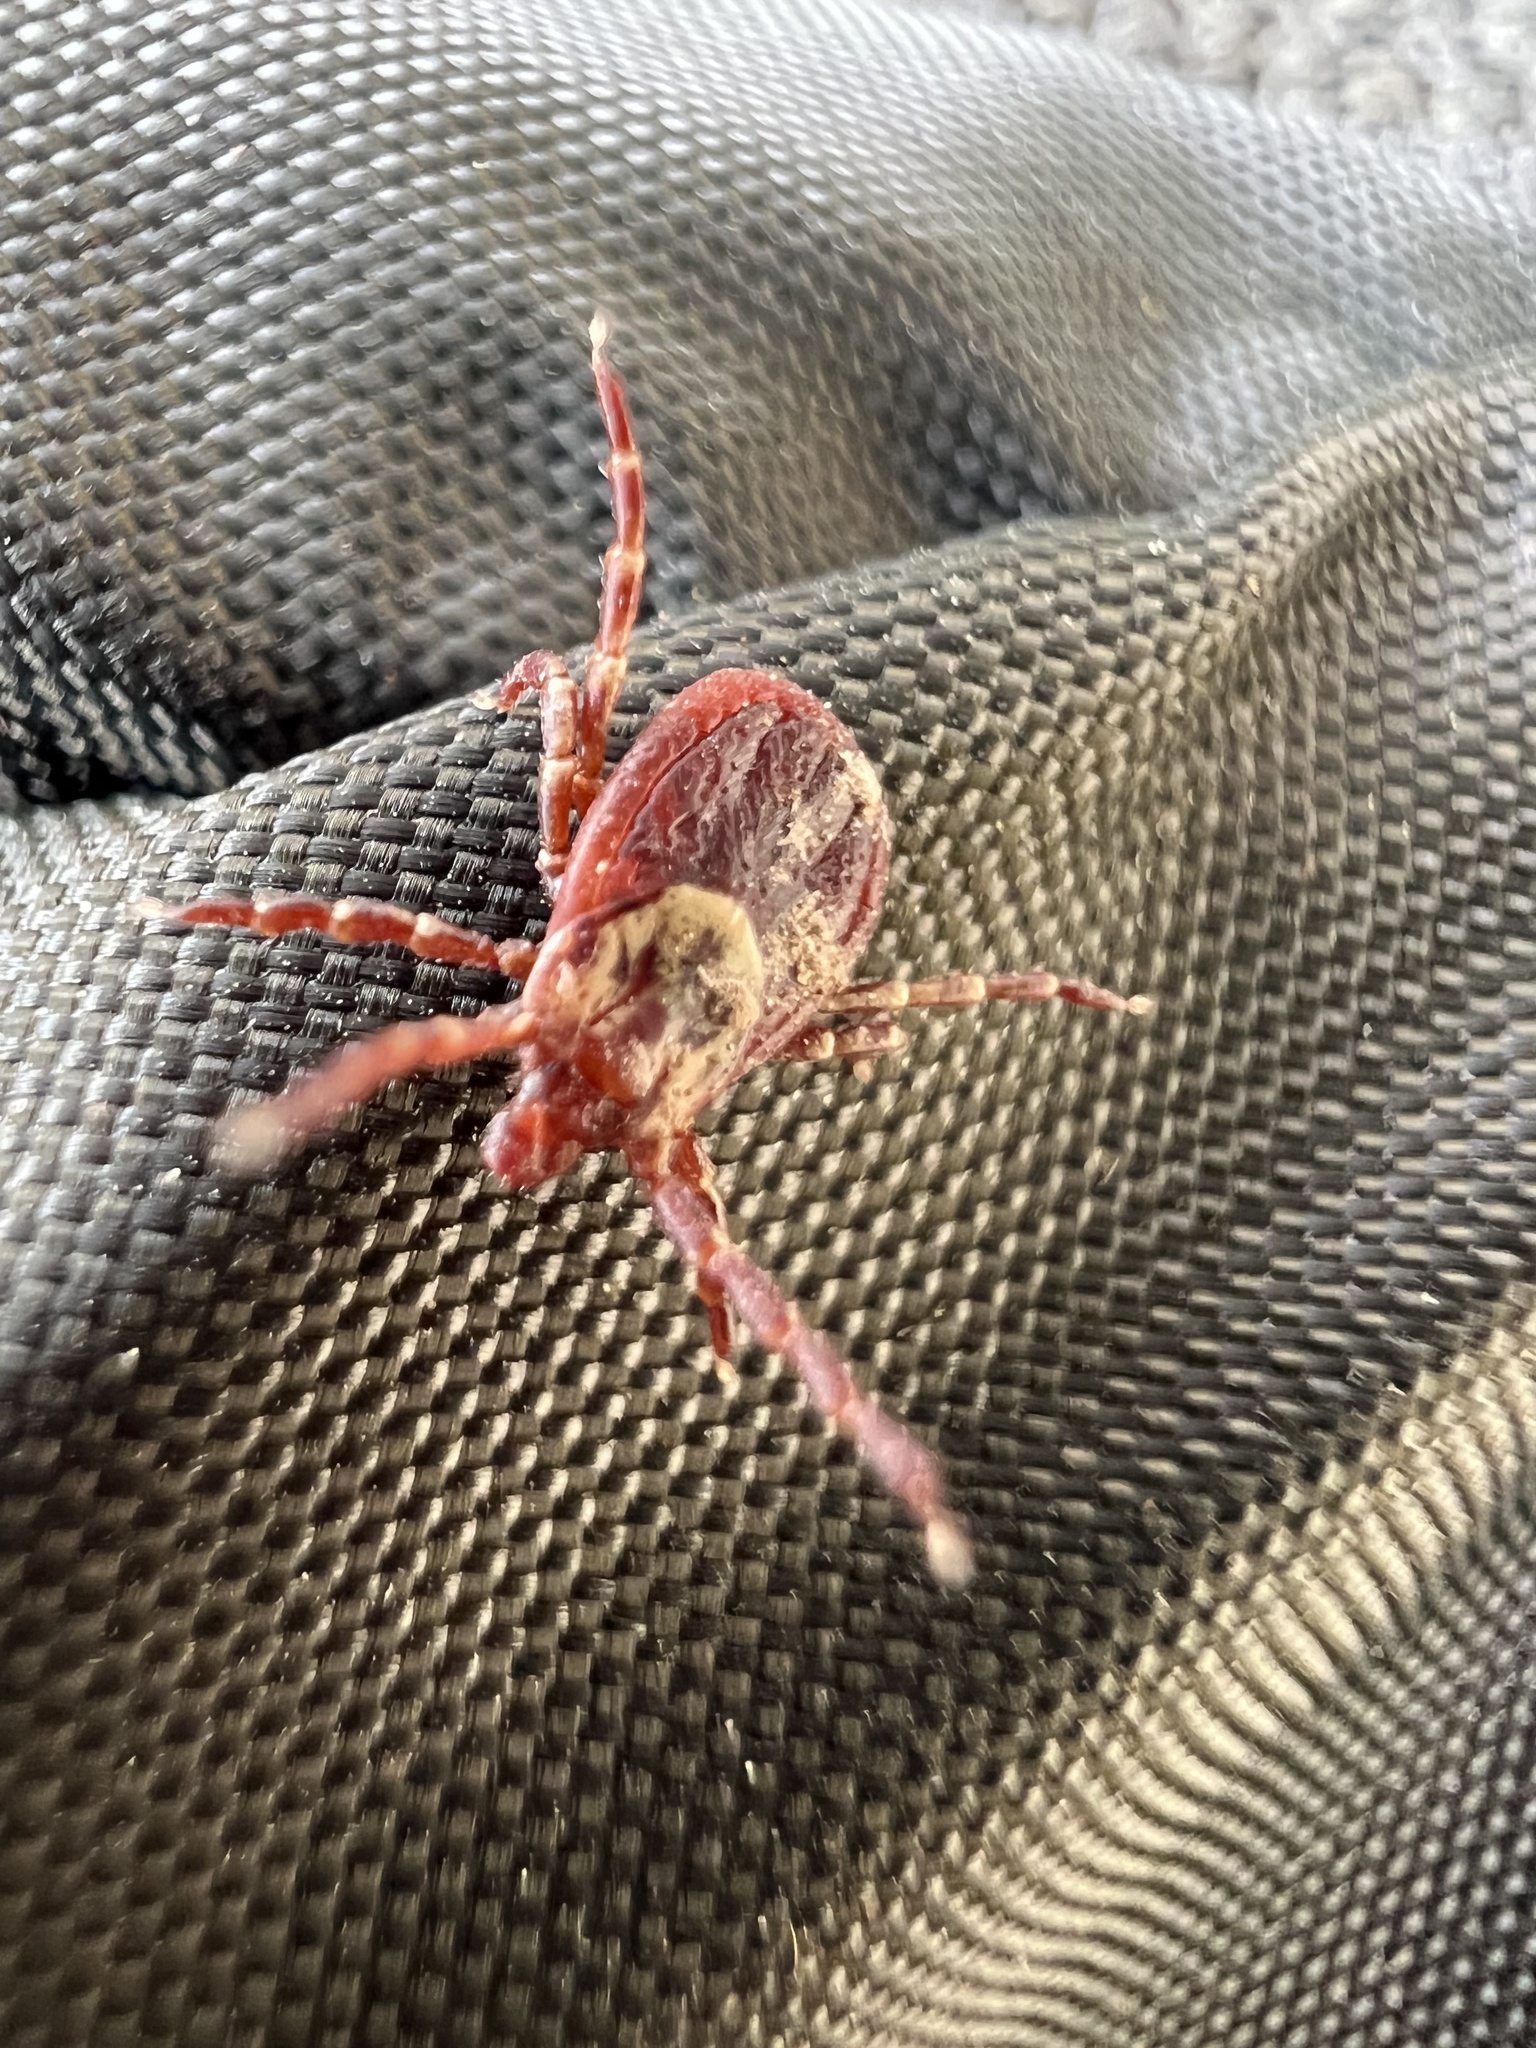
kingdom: Animalia
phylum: Arthropoda
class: Arachnida
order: Ixodida
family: Ixodidae
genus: Dermacentor
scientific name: Dermacentor variabilis
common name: American dog tick
